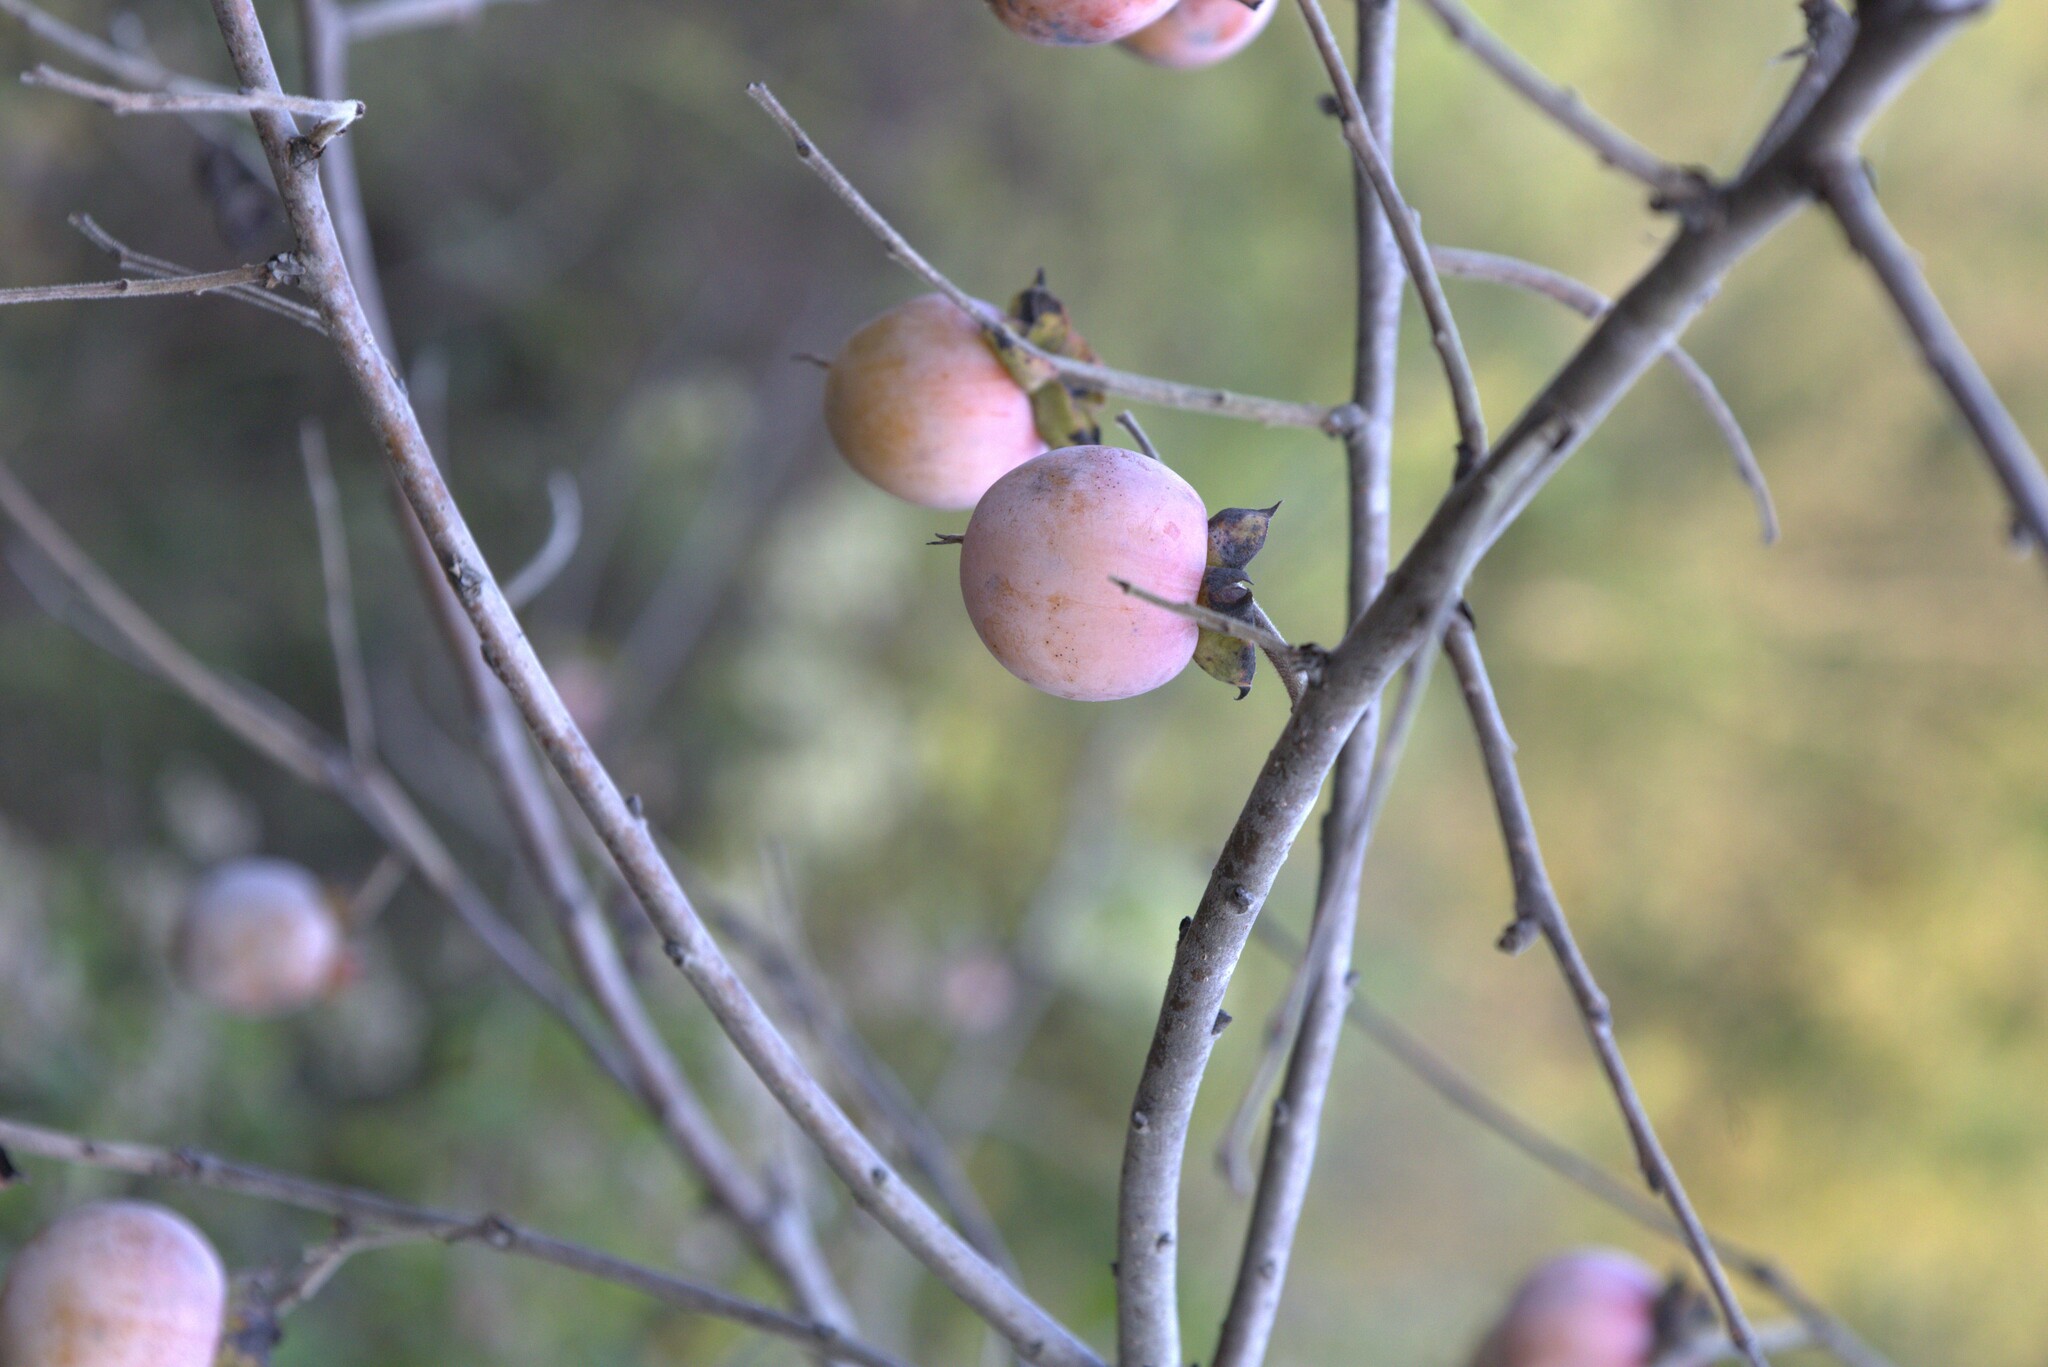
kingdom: Plantae
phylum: Tracheophyta
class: Magnoliopsida
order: Ericales
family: Ebenaceae
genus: Diospyros
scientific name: Diospyros virginiana
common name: Persimmon
